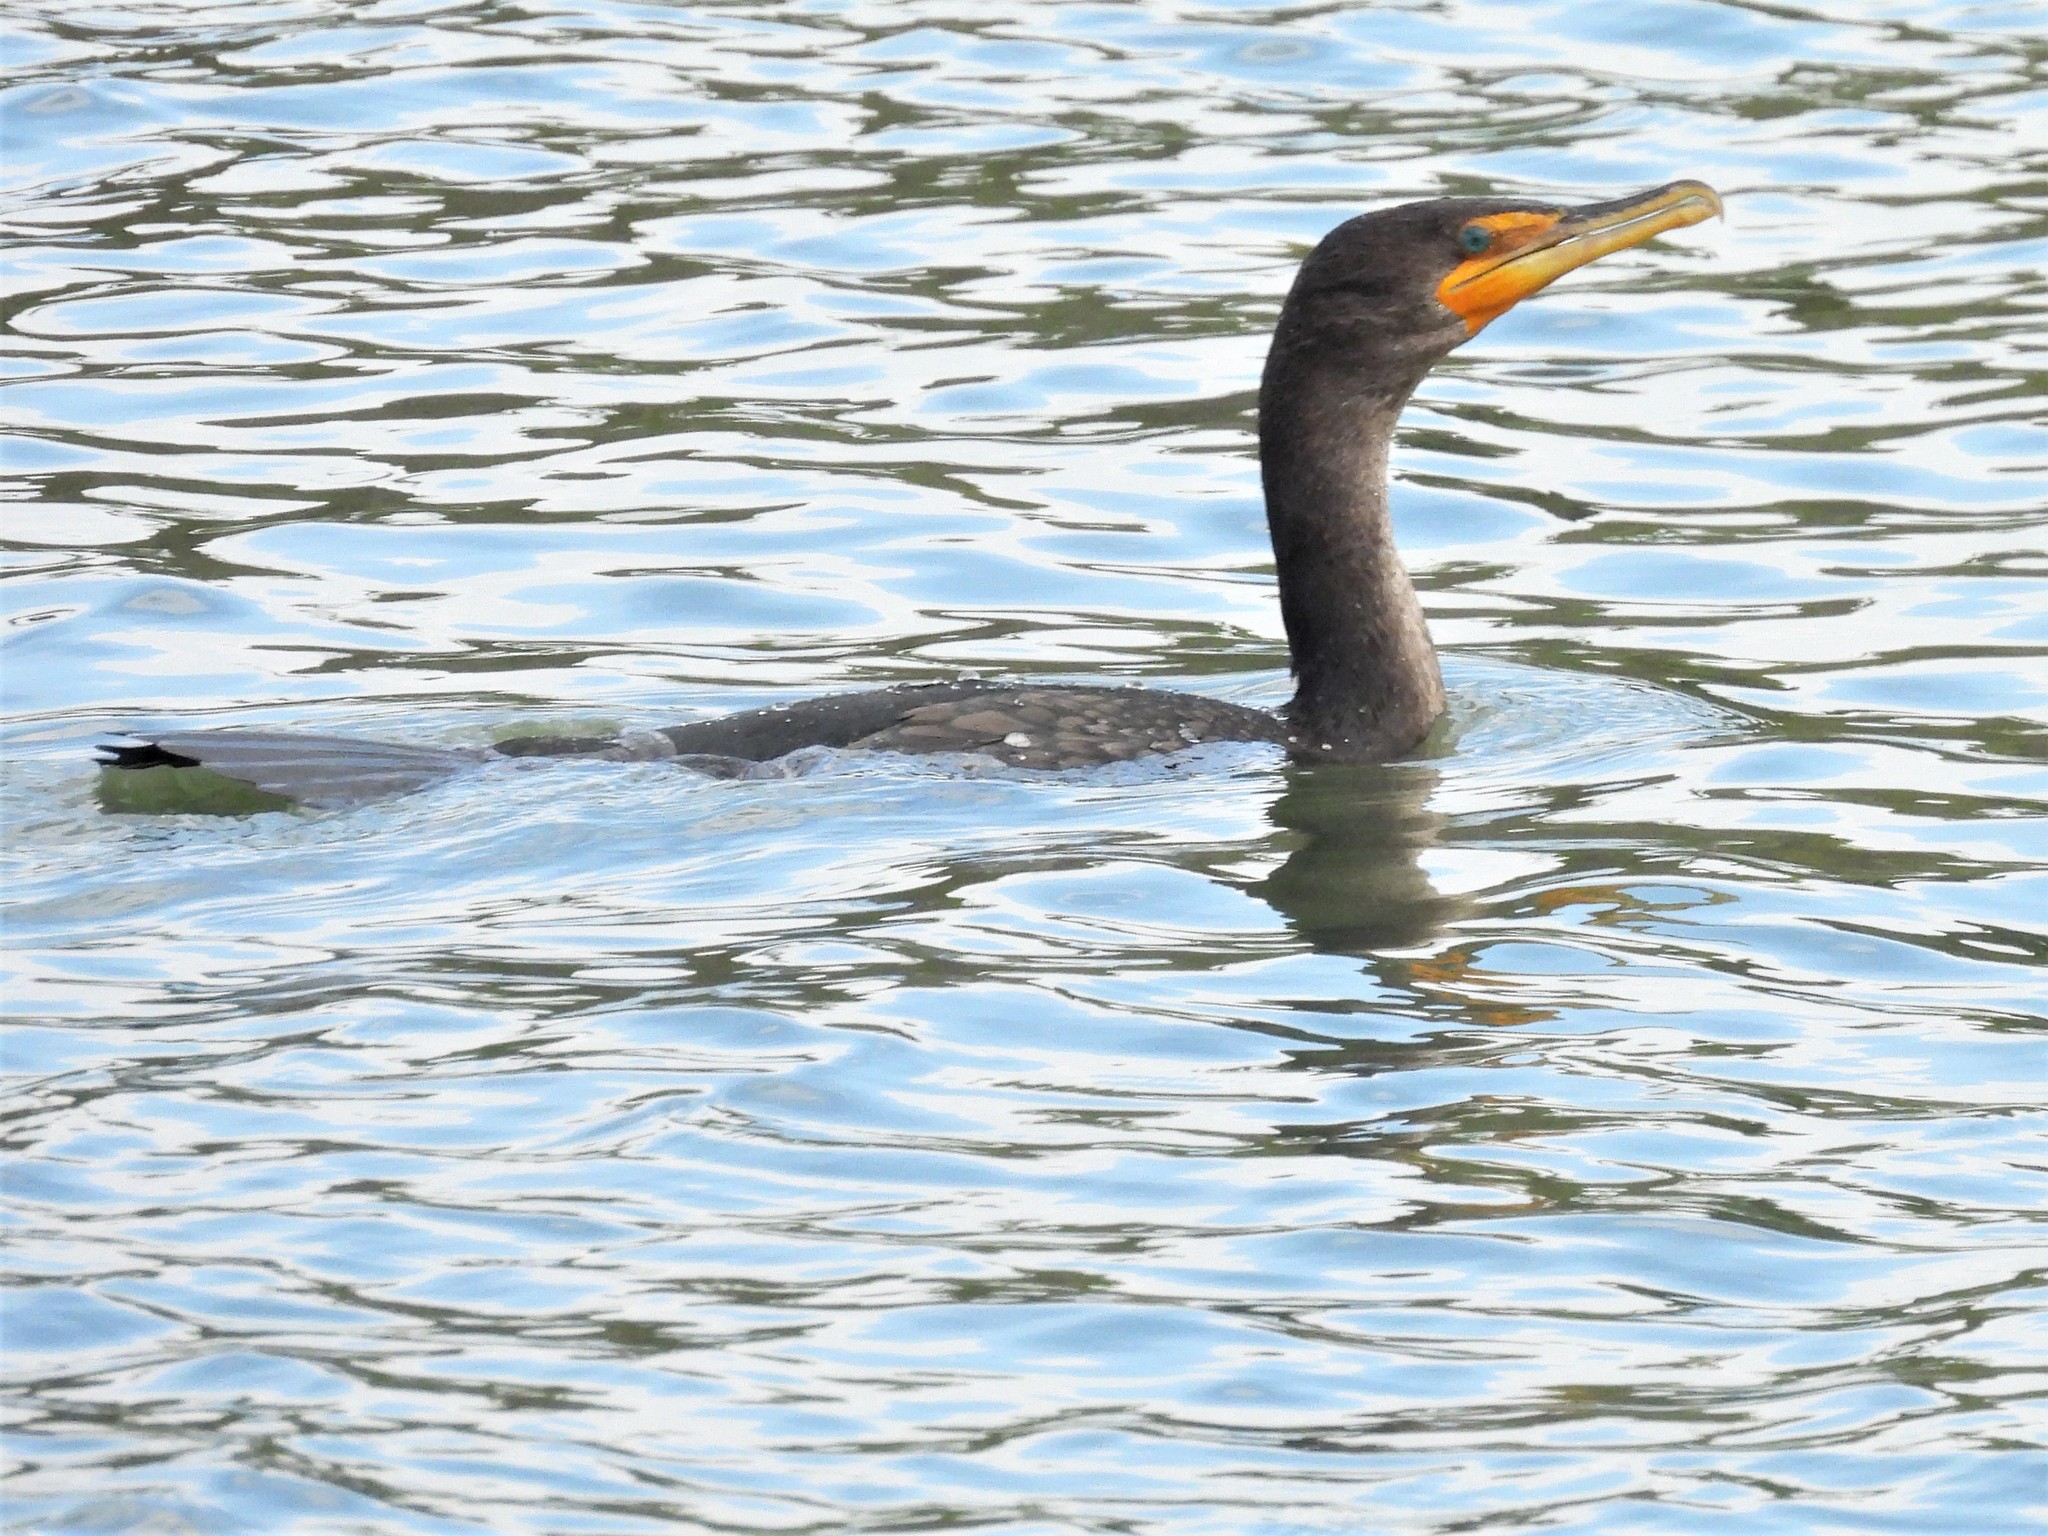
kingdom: Animalia
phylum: Chordata
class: Aves
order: Suliformes
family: Phalacrocoracidae
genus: Phalacrocorax
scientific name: Phalacrocorax auritus
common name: Double-crested cormorant
